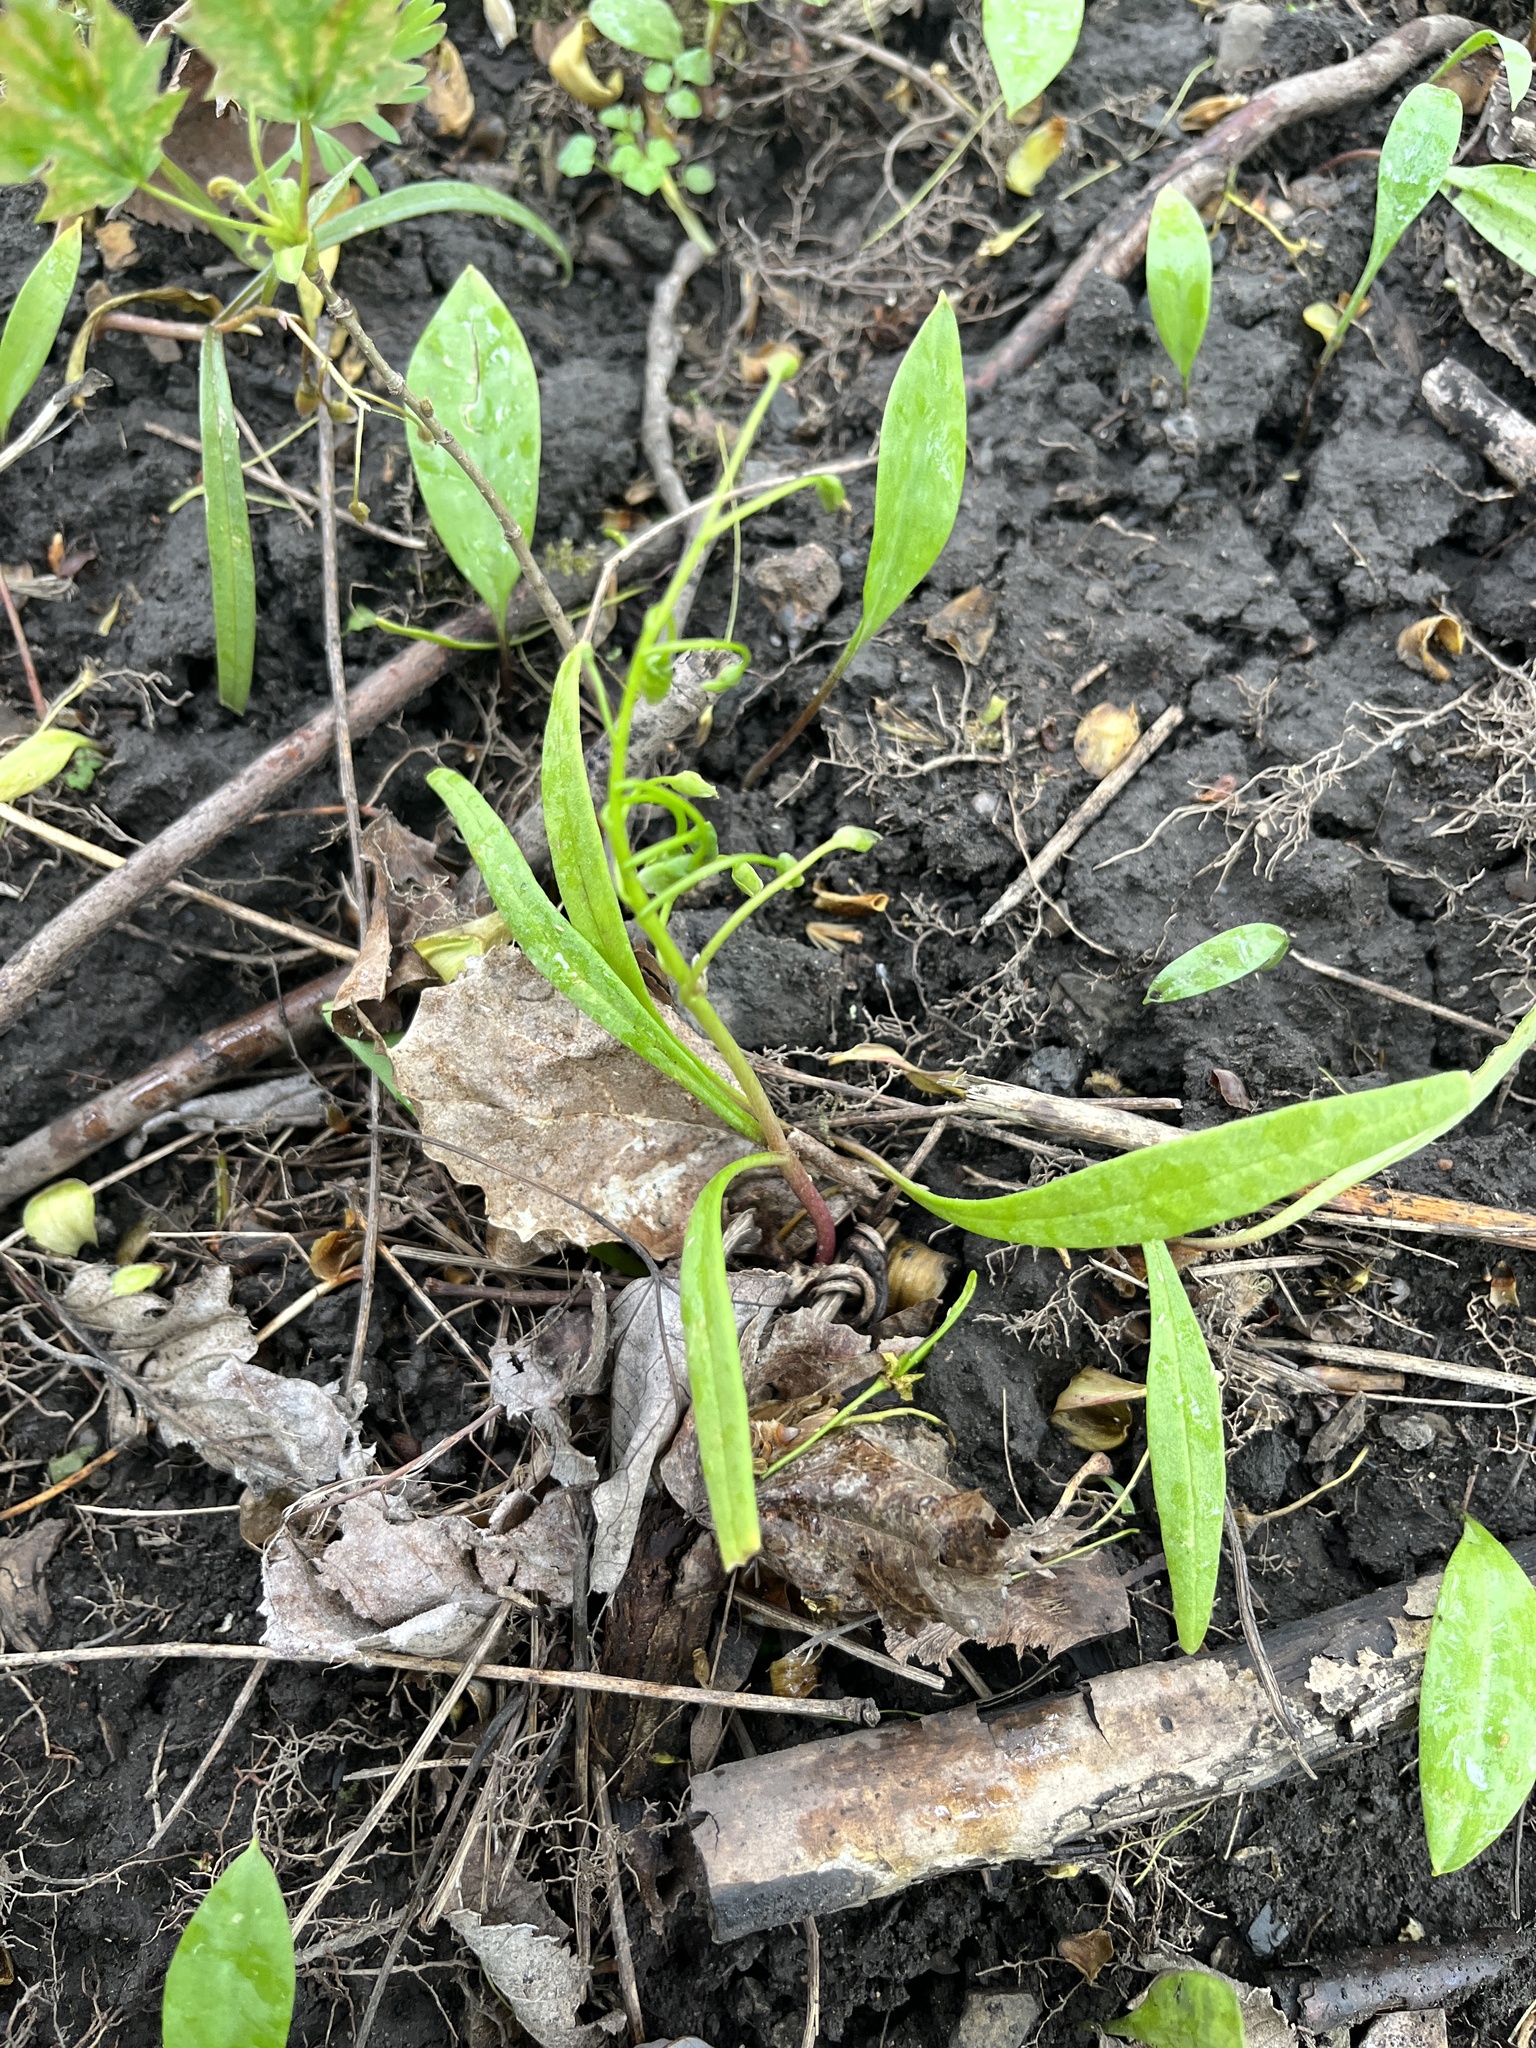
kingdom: Plantae
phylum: Tracheophyta
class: Magnoliopsida
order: Caryophyllales
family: Montiaceae
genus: Claytonia
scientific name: Claytonia virginica
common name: Virginia springbeauty
